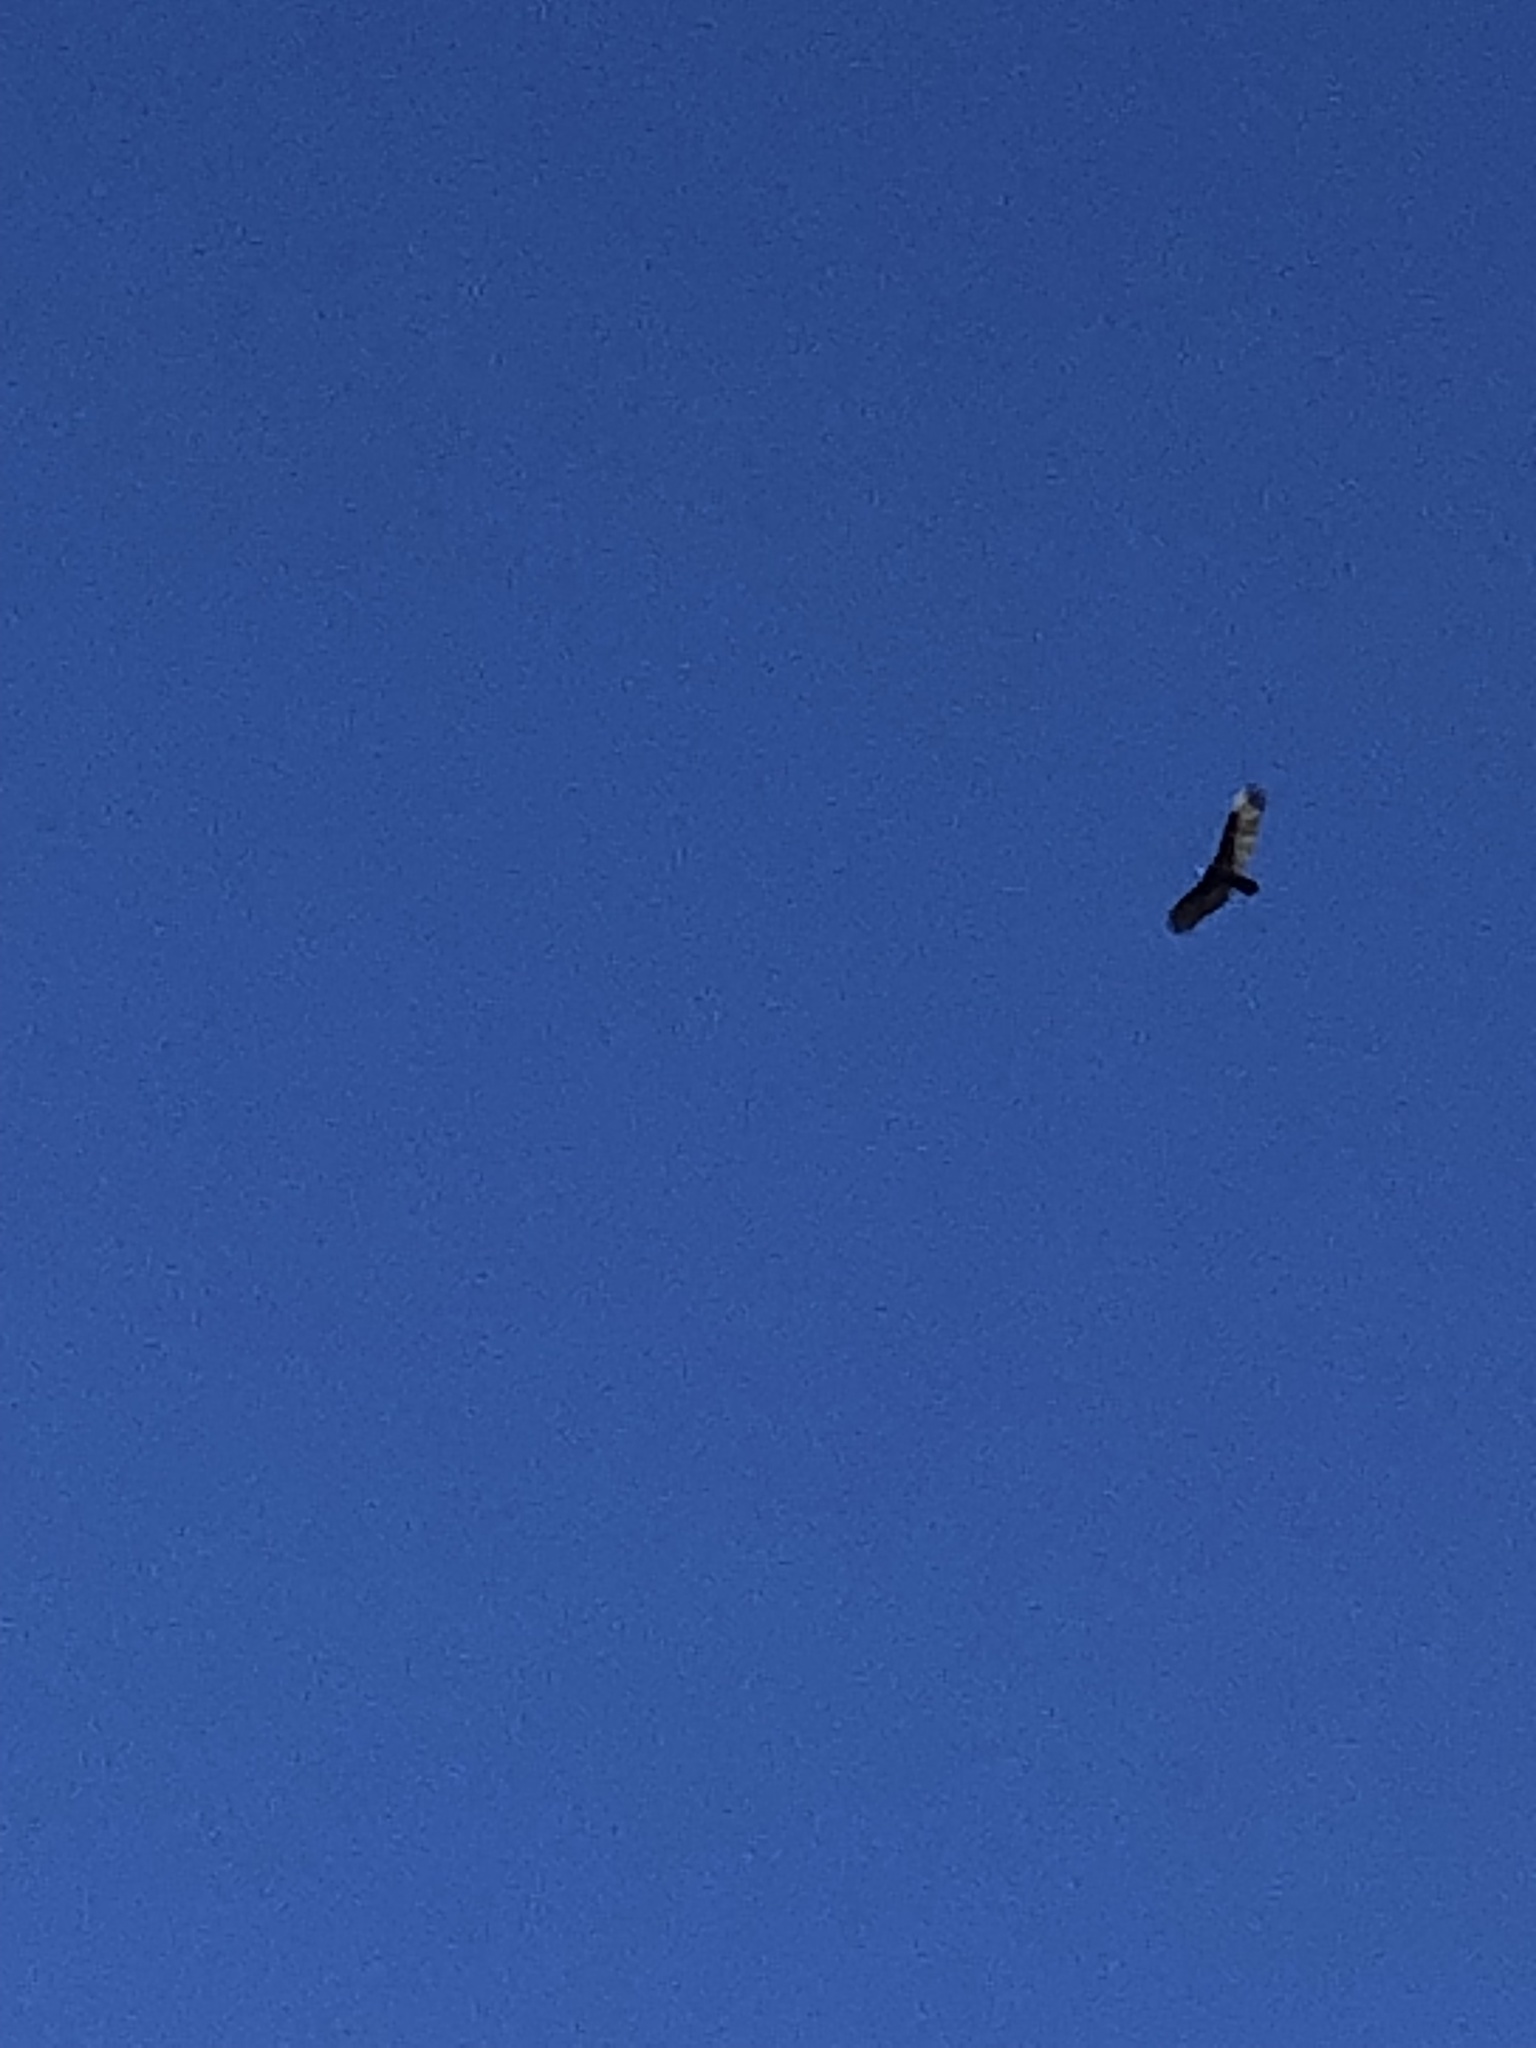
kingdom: Animalia
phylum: Chordata
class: Aves
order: Accipitriformes
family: Cathartidae
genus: Cathartes
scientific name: Cathartes aura
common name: Turkey vulture
